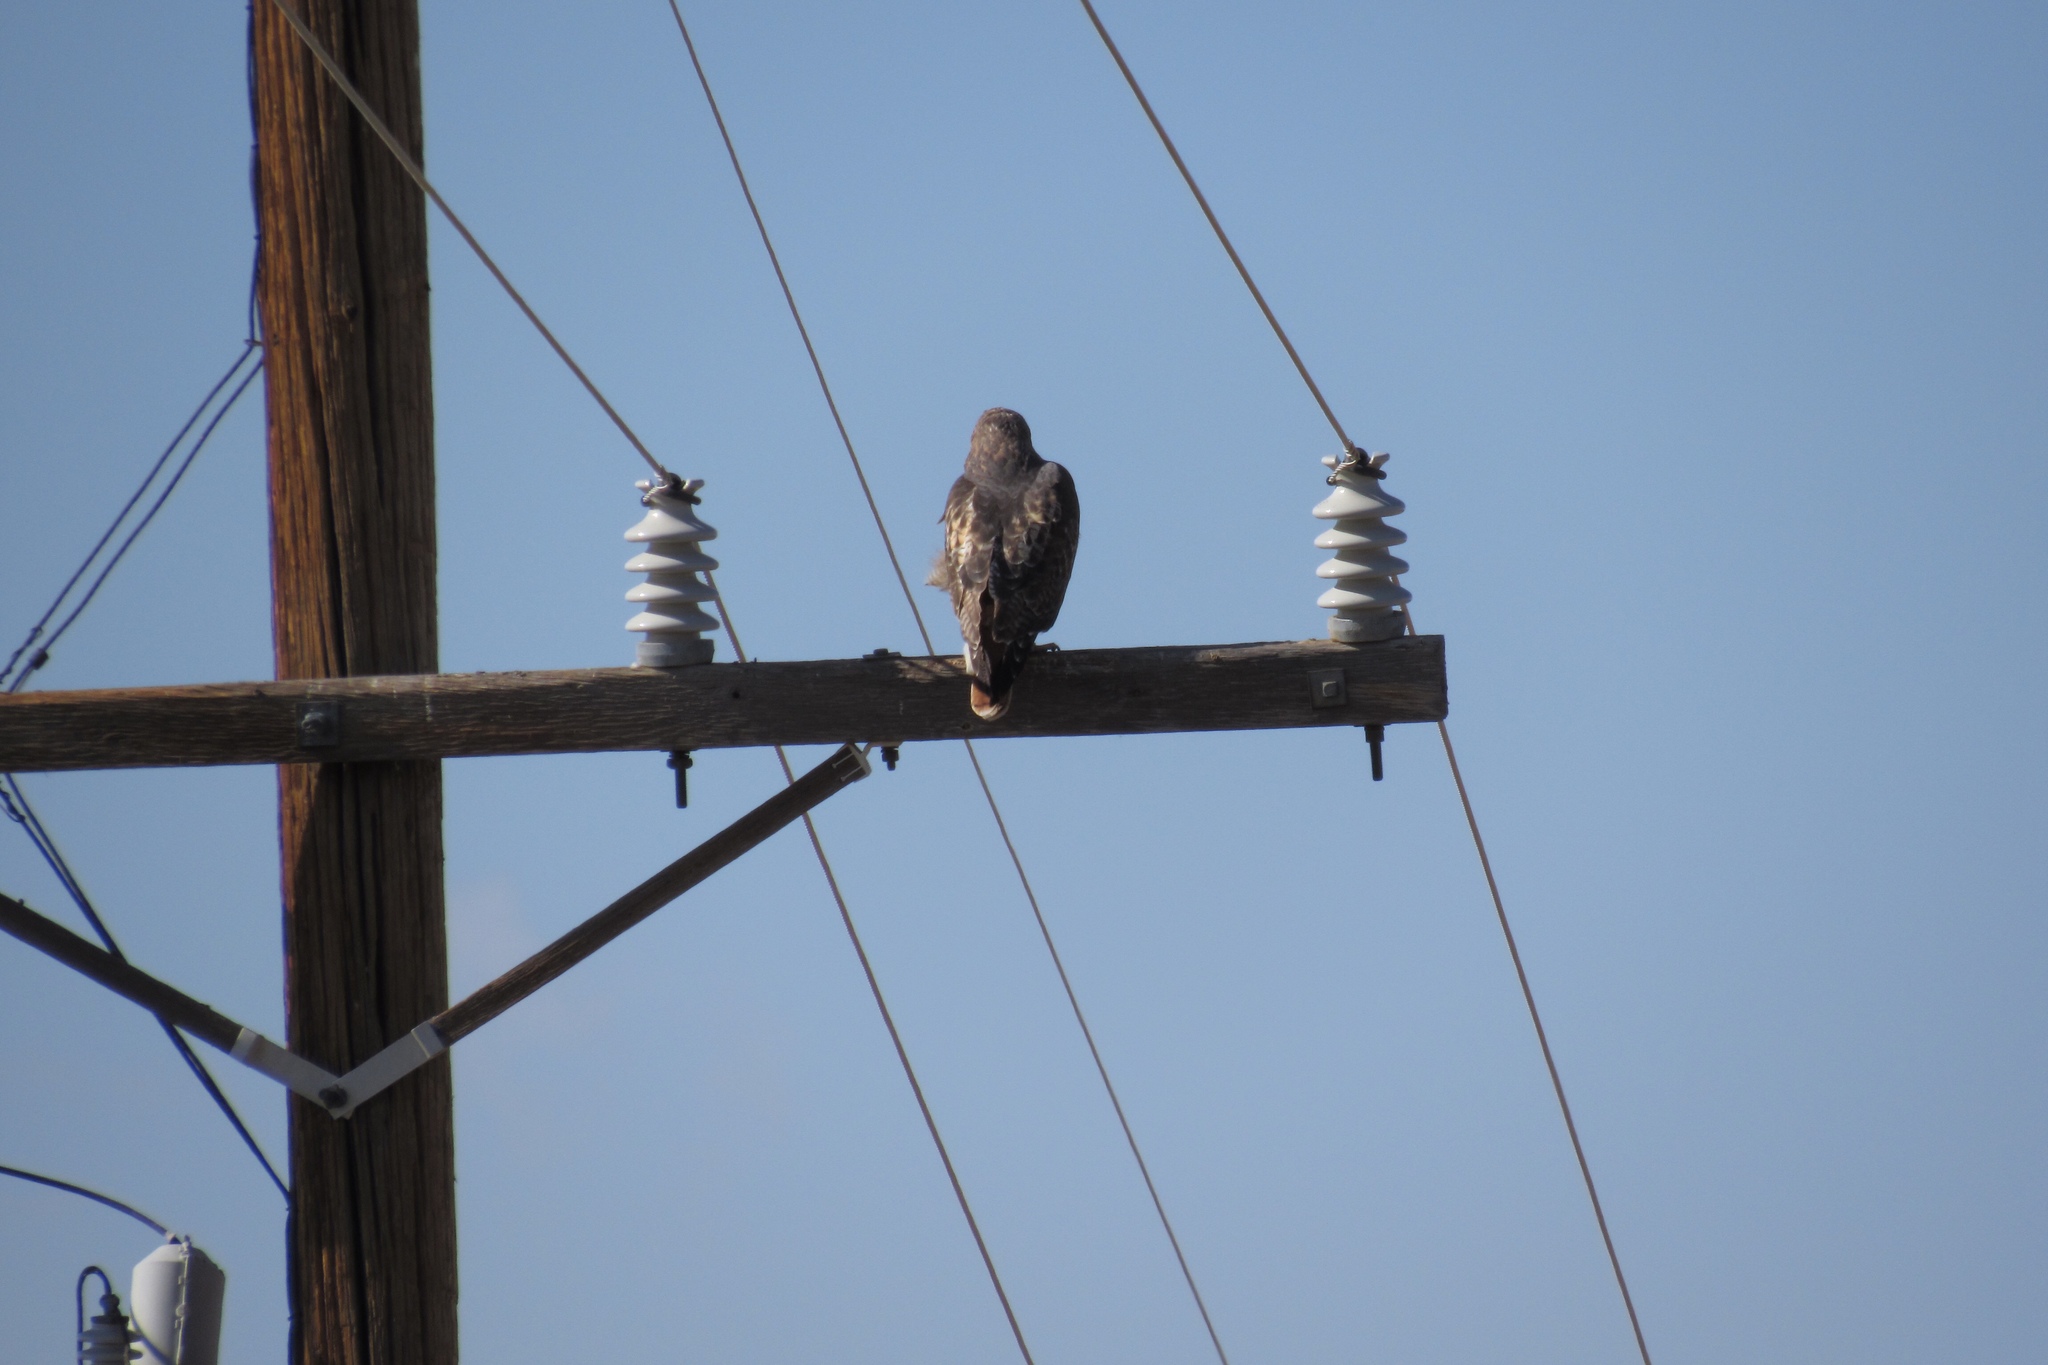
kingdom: Animalia
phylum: Chordata
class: Aves
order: Accipitriformes
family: Accipitridae
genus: Buteo
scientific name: Buteo jamaicensis
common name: Red-tailed hawk
